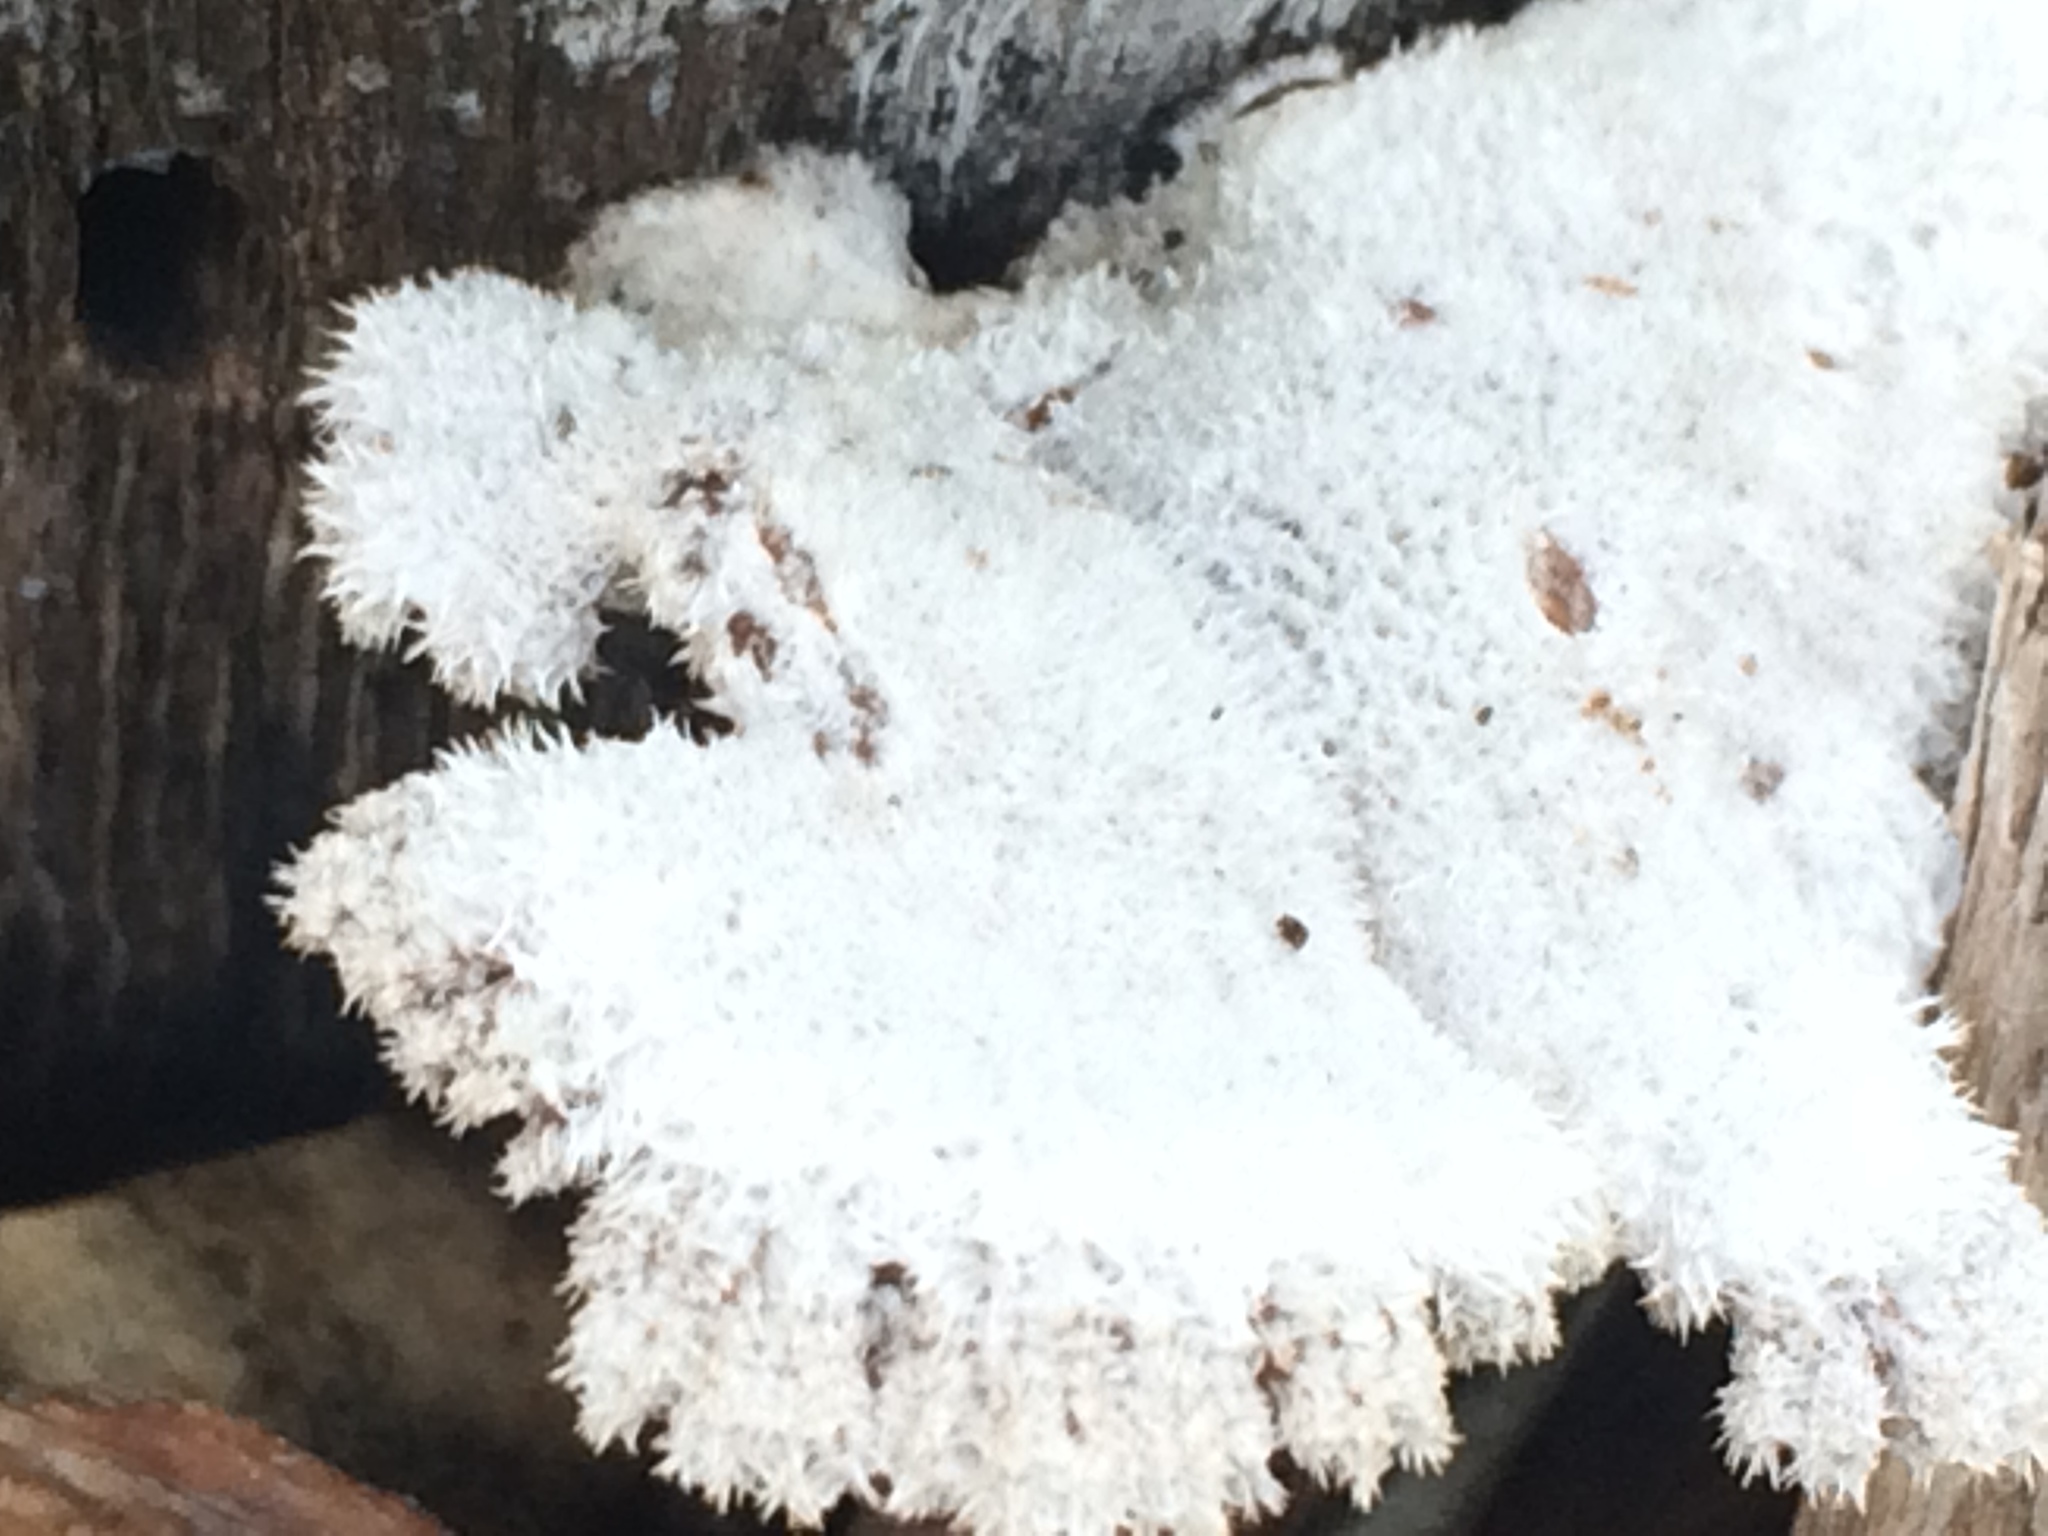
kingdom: Fungi
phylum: Basidiomycota
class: Agaricomycetes
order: Agaricales
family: Schizophyllaceae
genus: Schizophyllum
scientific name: Schizophyllum commune
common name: Common porecrust
